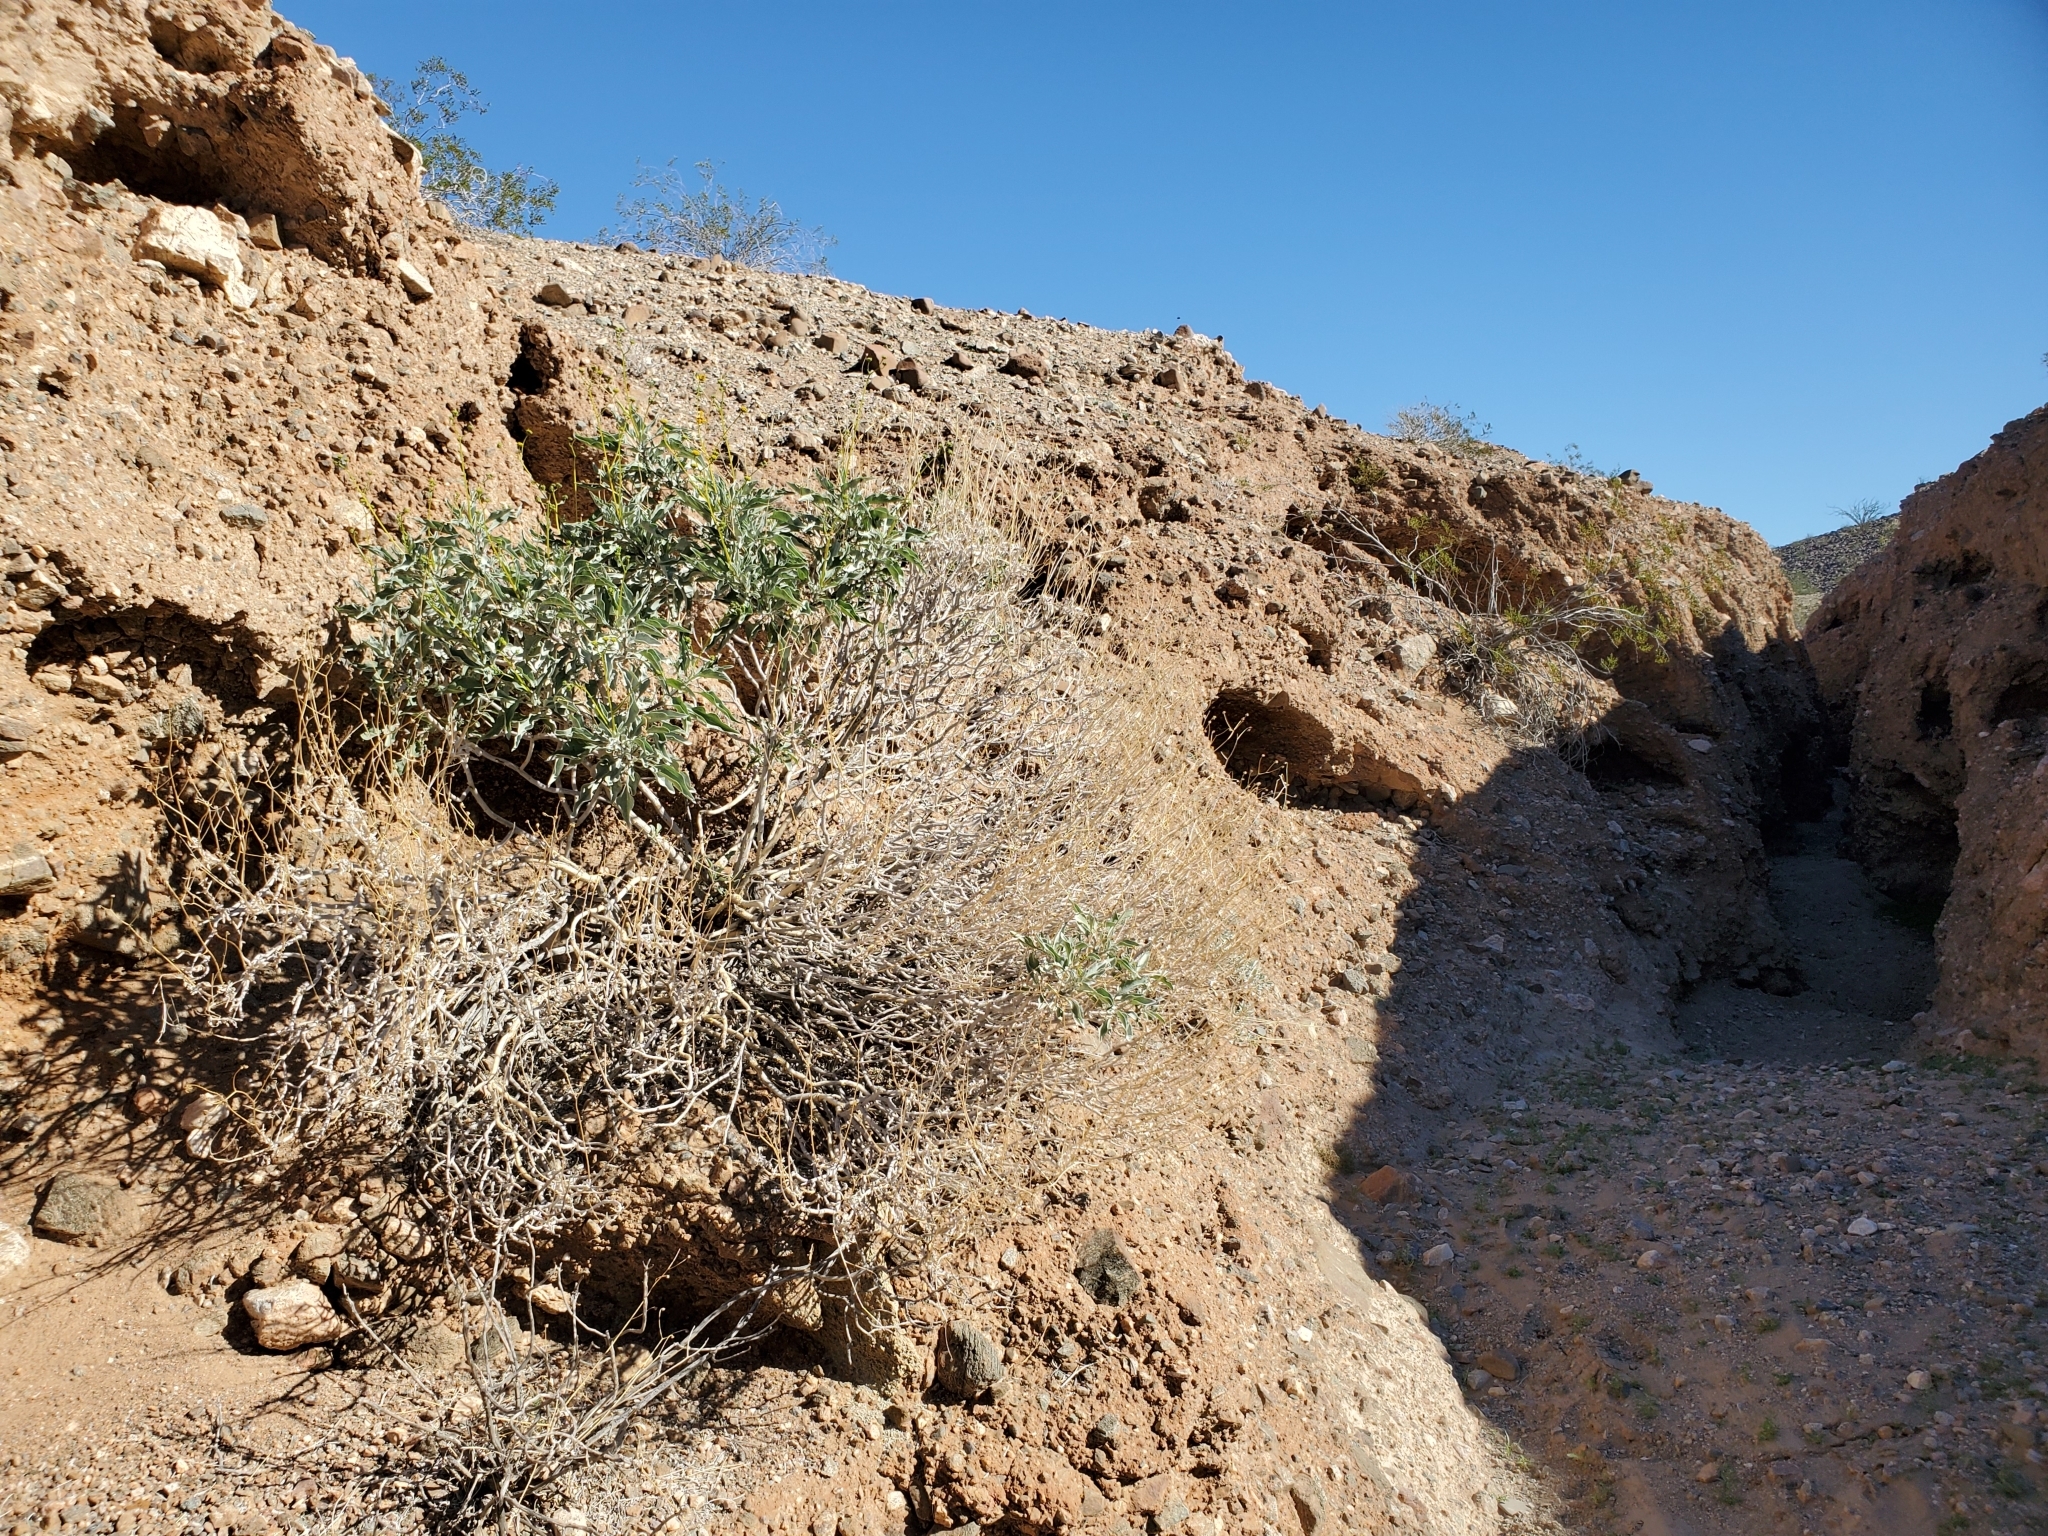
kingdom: Plantae
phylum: Tracheophyta
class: Magnoliopsida
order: Asterales
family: Asteraceae
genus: Encelia
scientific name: Encelia farinosa
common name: Brittlebush
